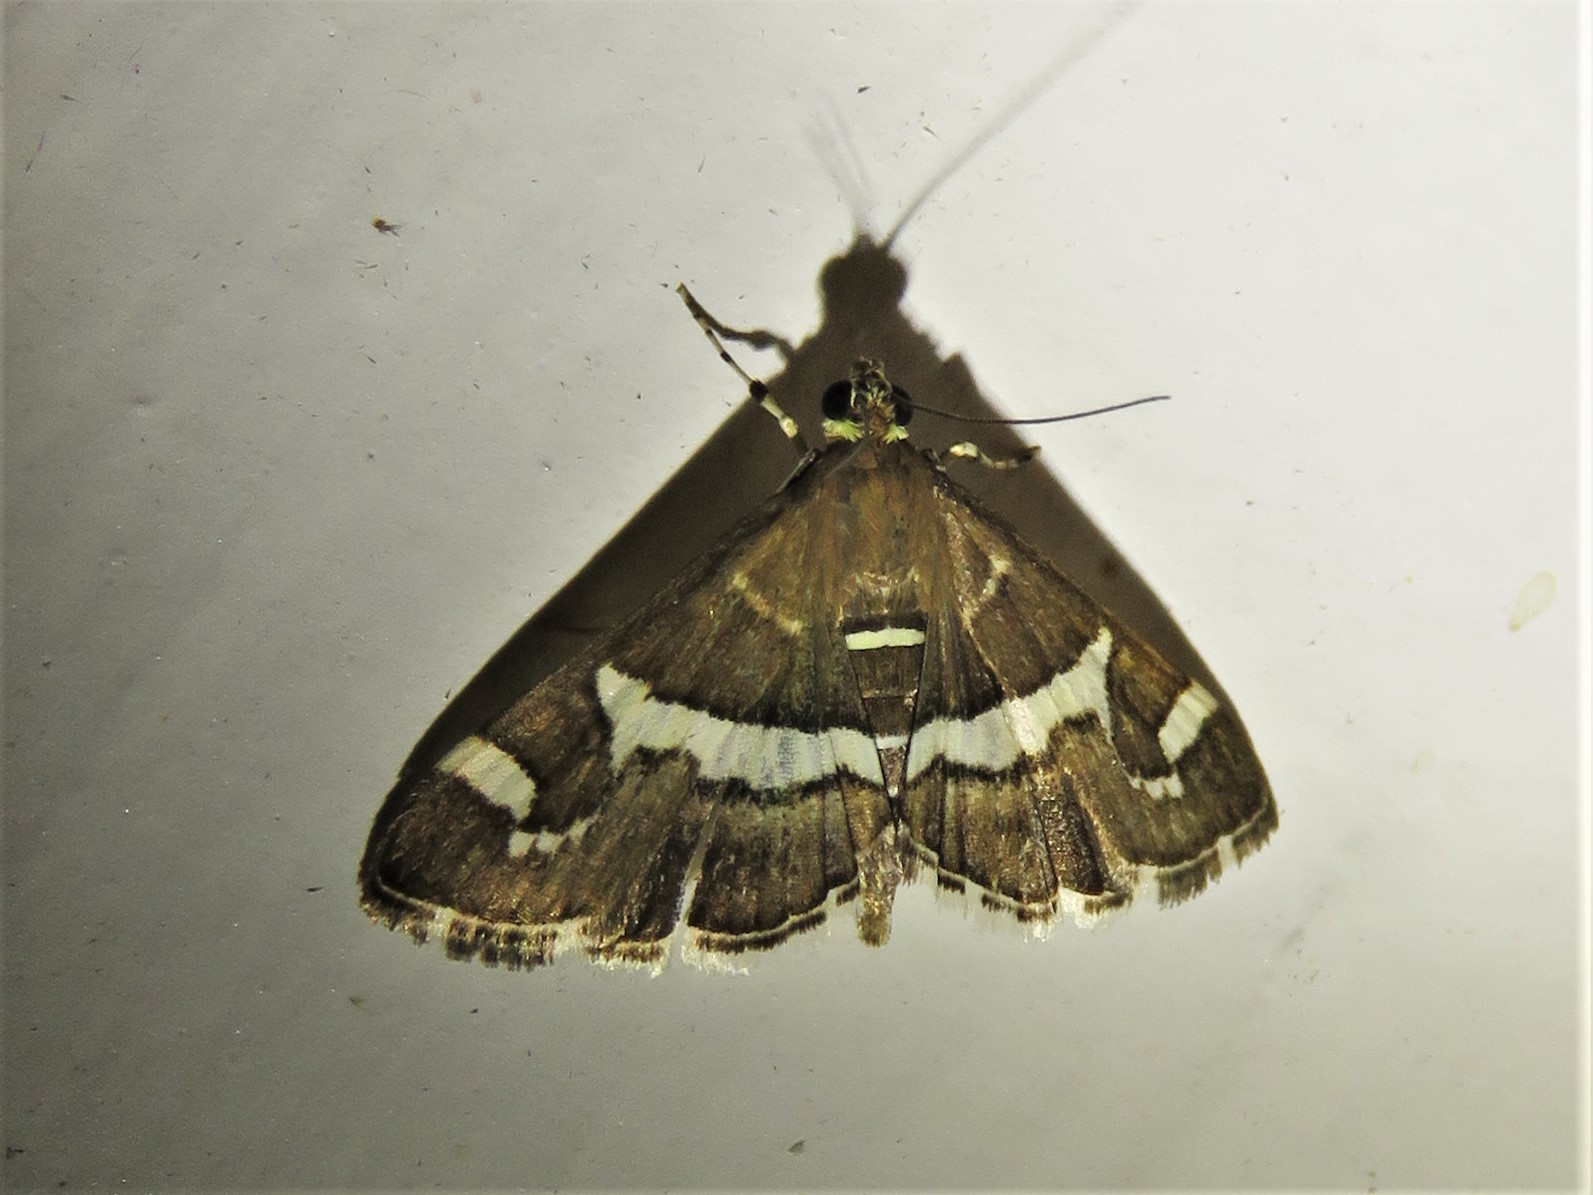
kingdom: Animalia
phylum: Arthropoda
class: Insecta
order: Lepidoptera
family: Crambidae
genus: Spoladea
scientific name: Spoladea recurvalis
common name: Beet webworm moth
